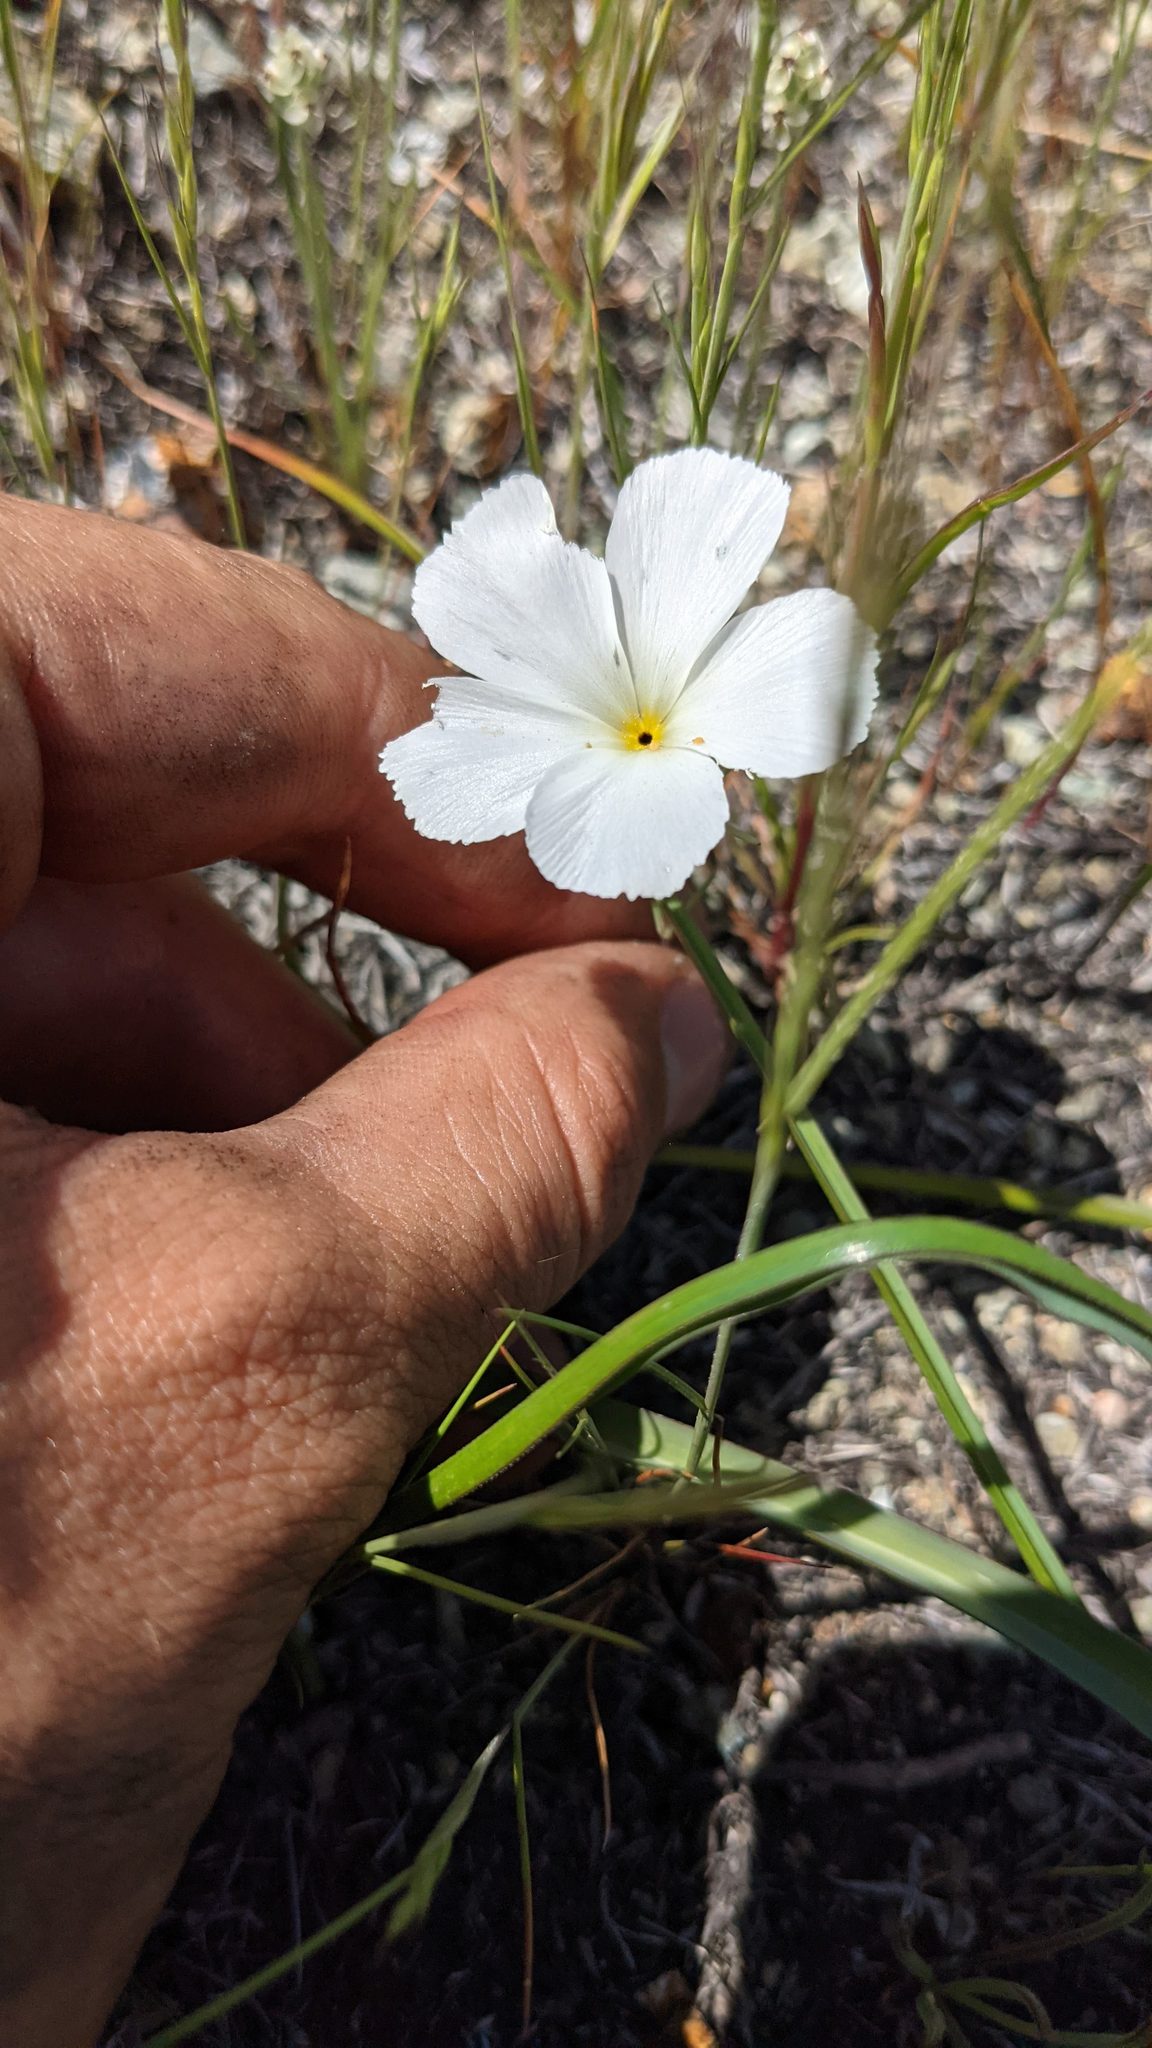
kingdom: Plantae
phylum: Tracheophyta
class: Magnoliopsida
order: Ericales
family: Polemoniaceae
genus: Linanthus
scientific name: Linanthus dichotomus
